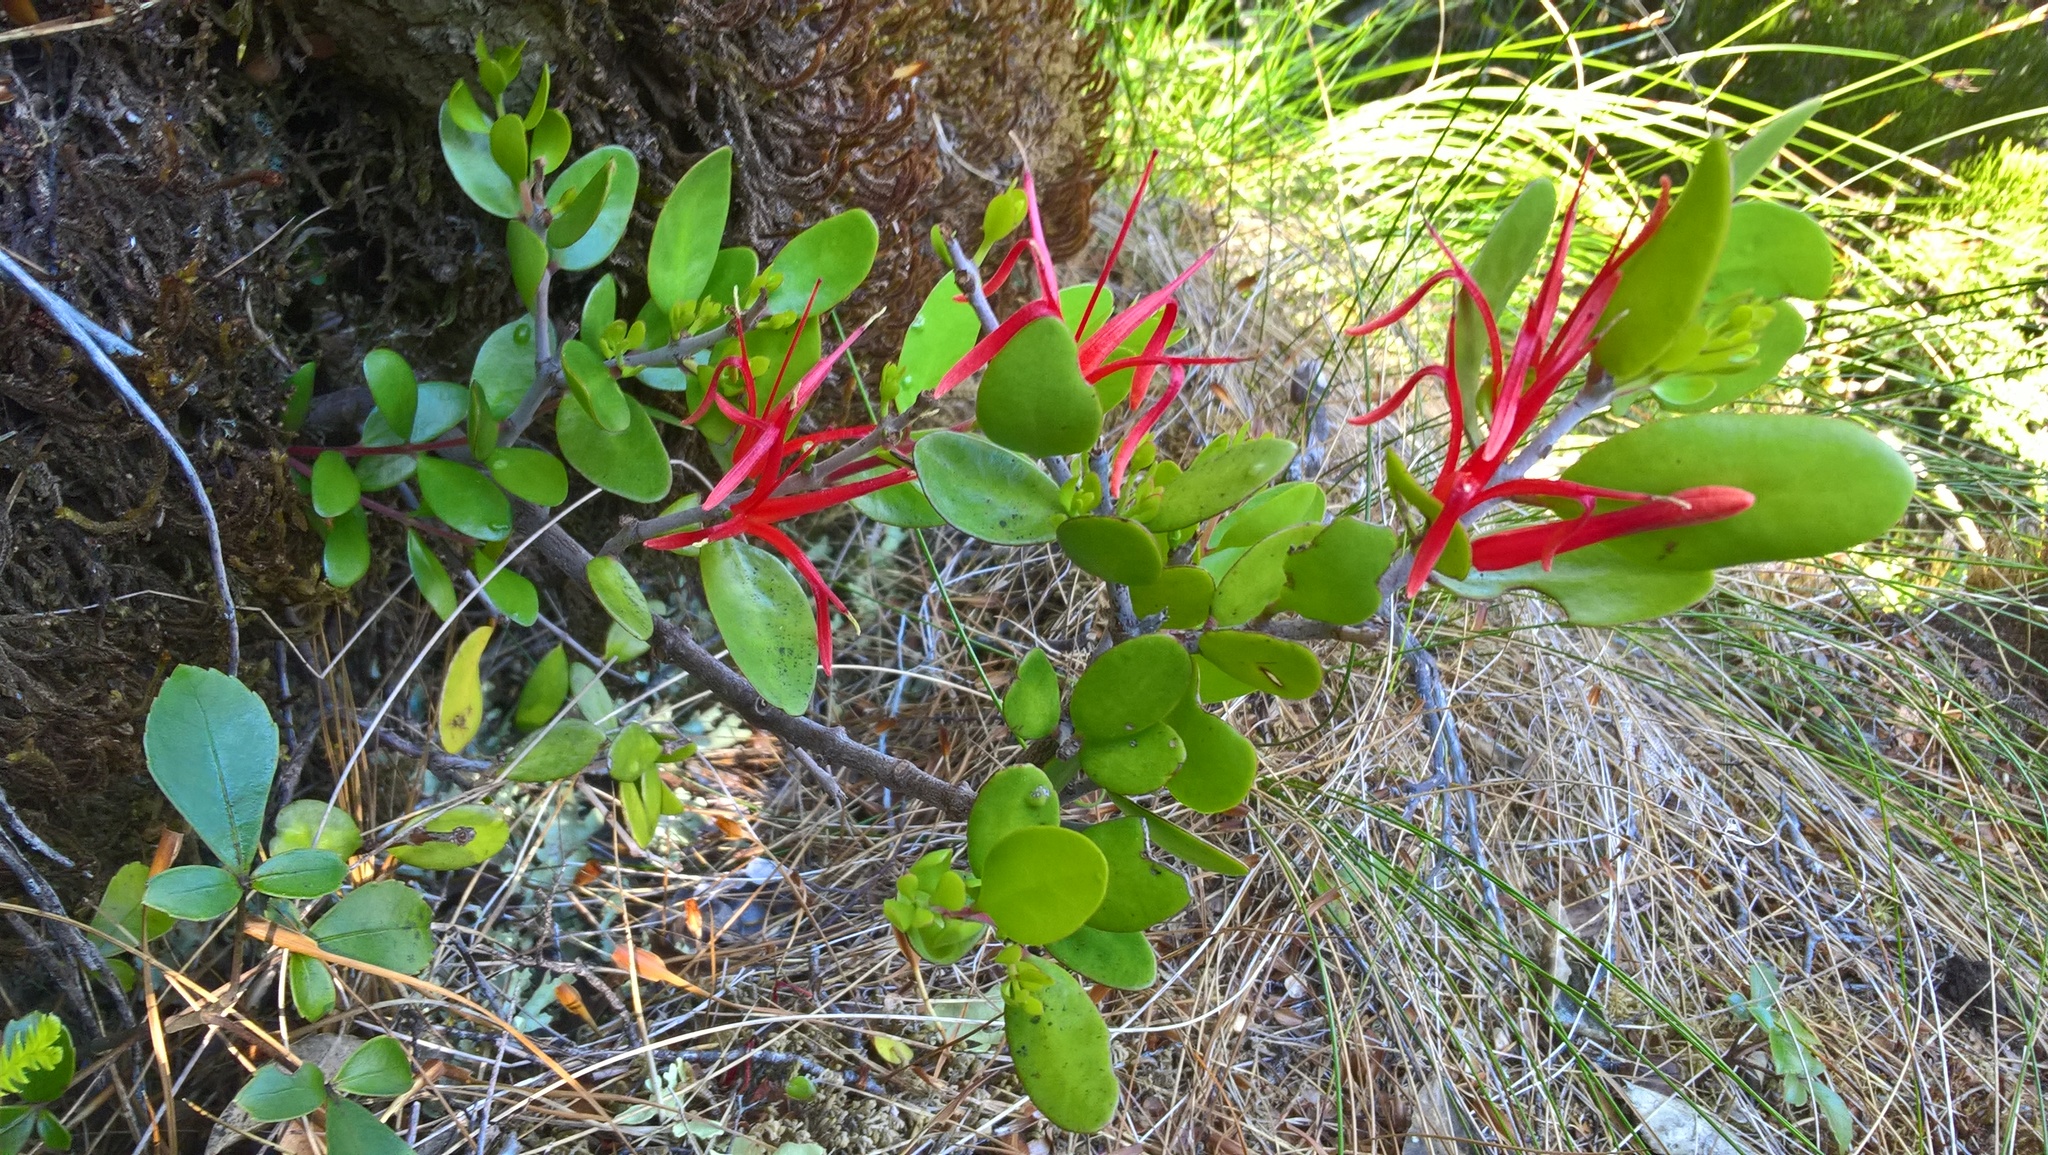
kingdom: Plantae
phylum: Tracheophyta
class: Magnoliopsida
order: Santalales
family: Loranthaceae
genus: Peraxilla
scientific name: Peraxilla tetrapetala
